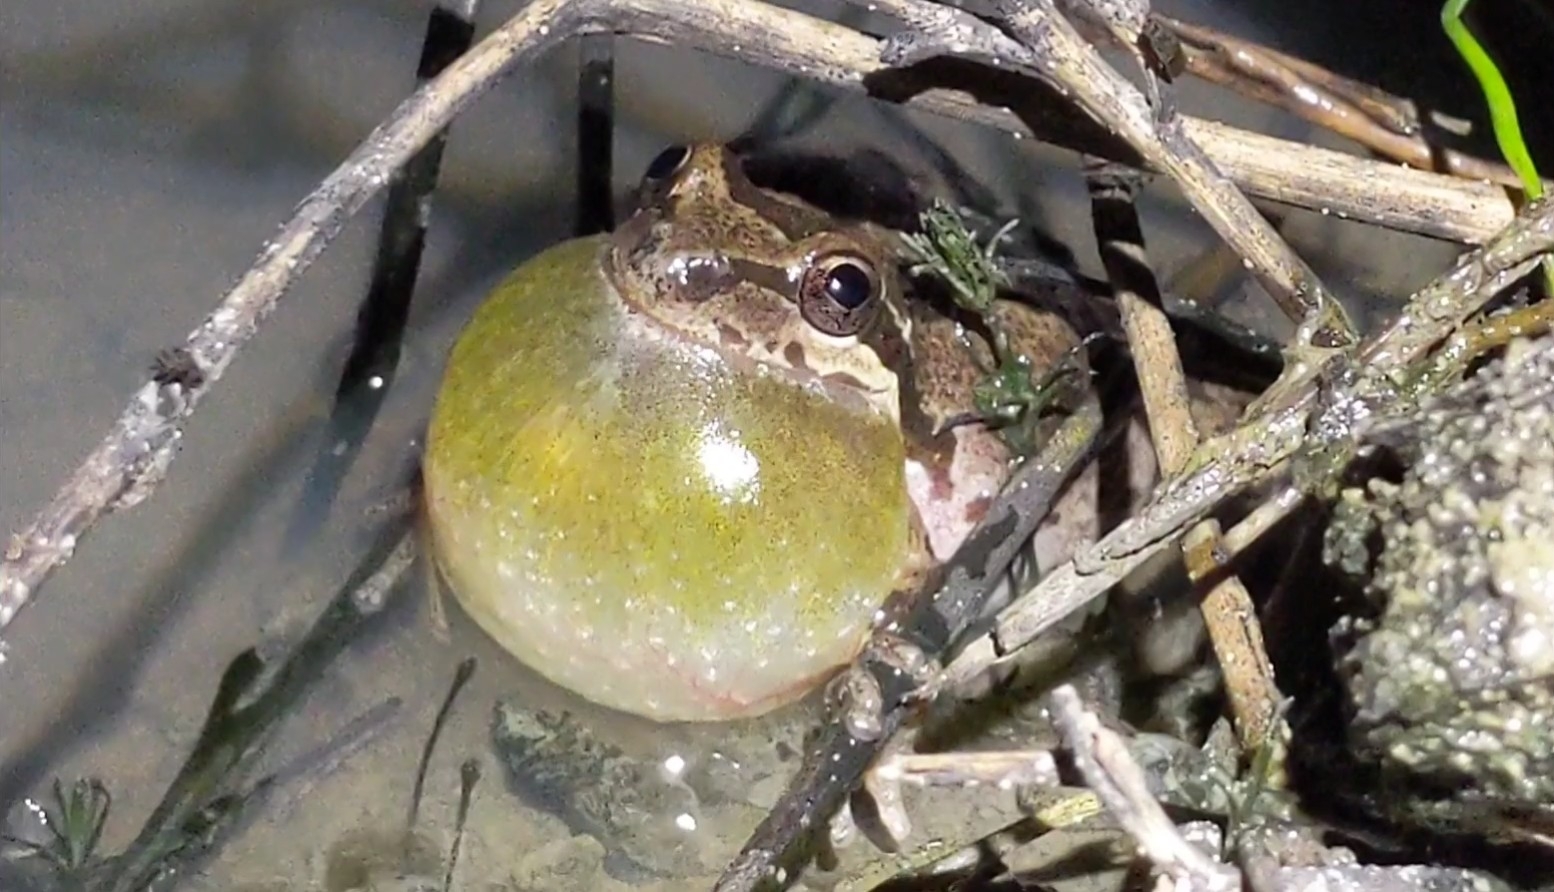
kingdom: Animalia
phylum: Chordata
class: Amphibia
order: Anura
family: Hylidae
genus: Pseudacris
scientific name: Pseudacris regilla
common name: Pacific chorus frog
